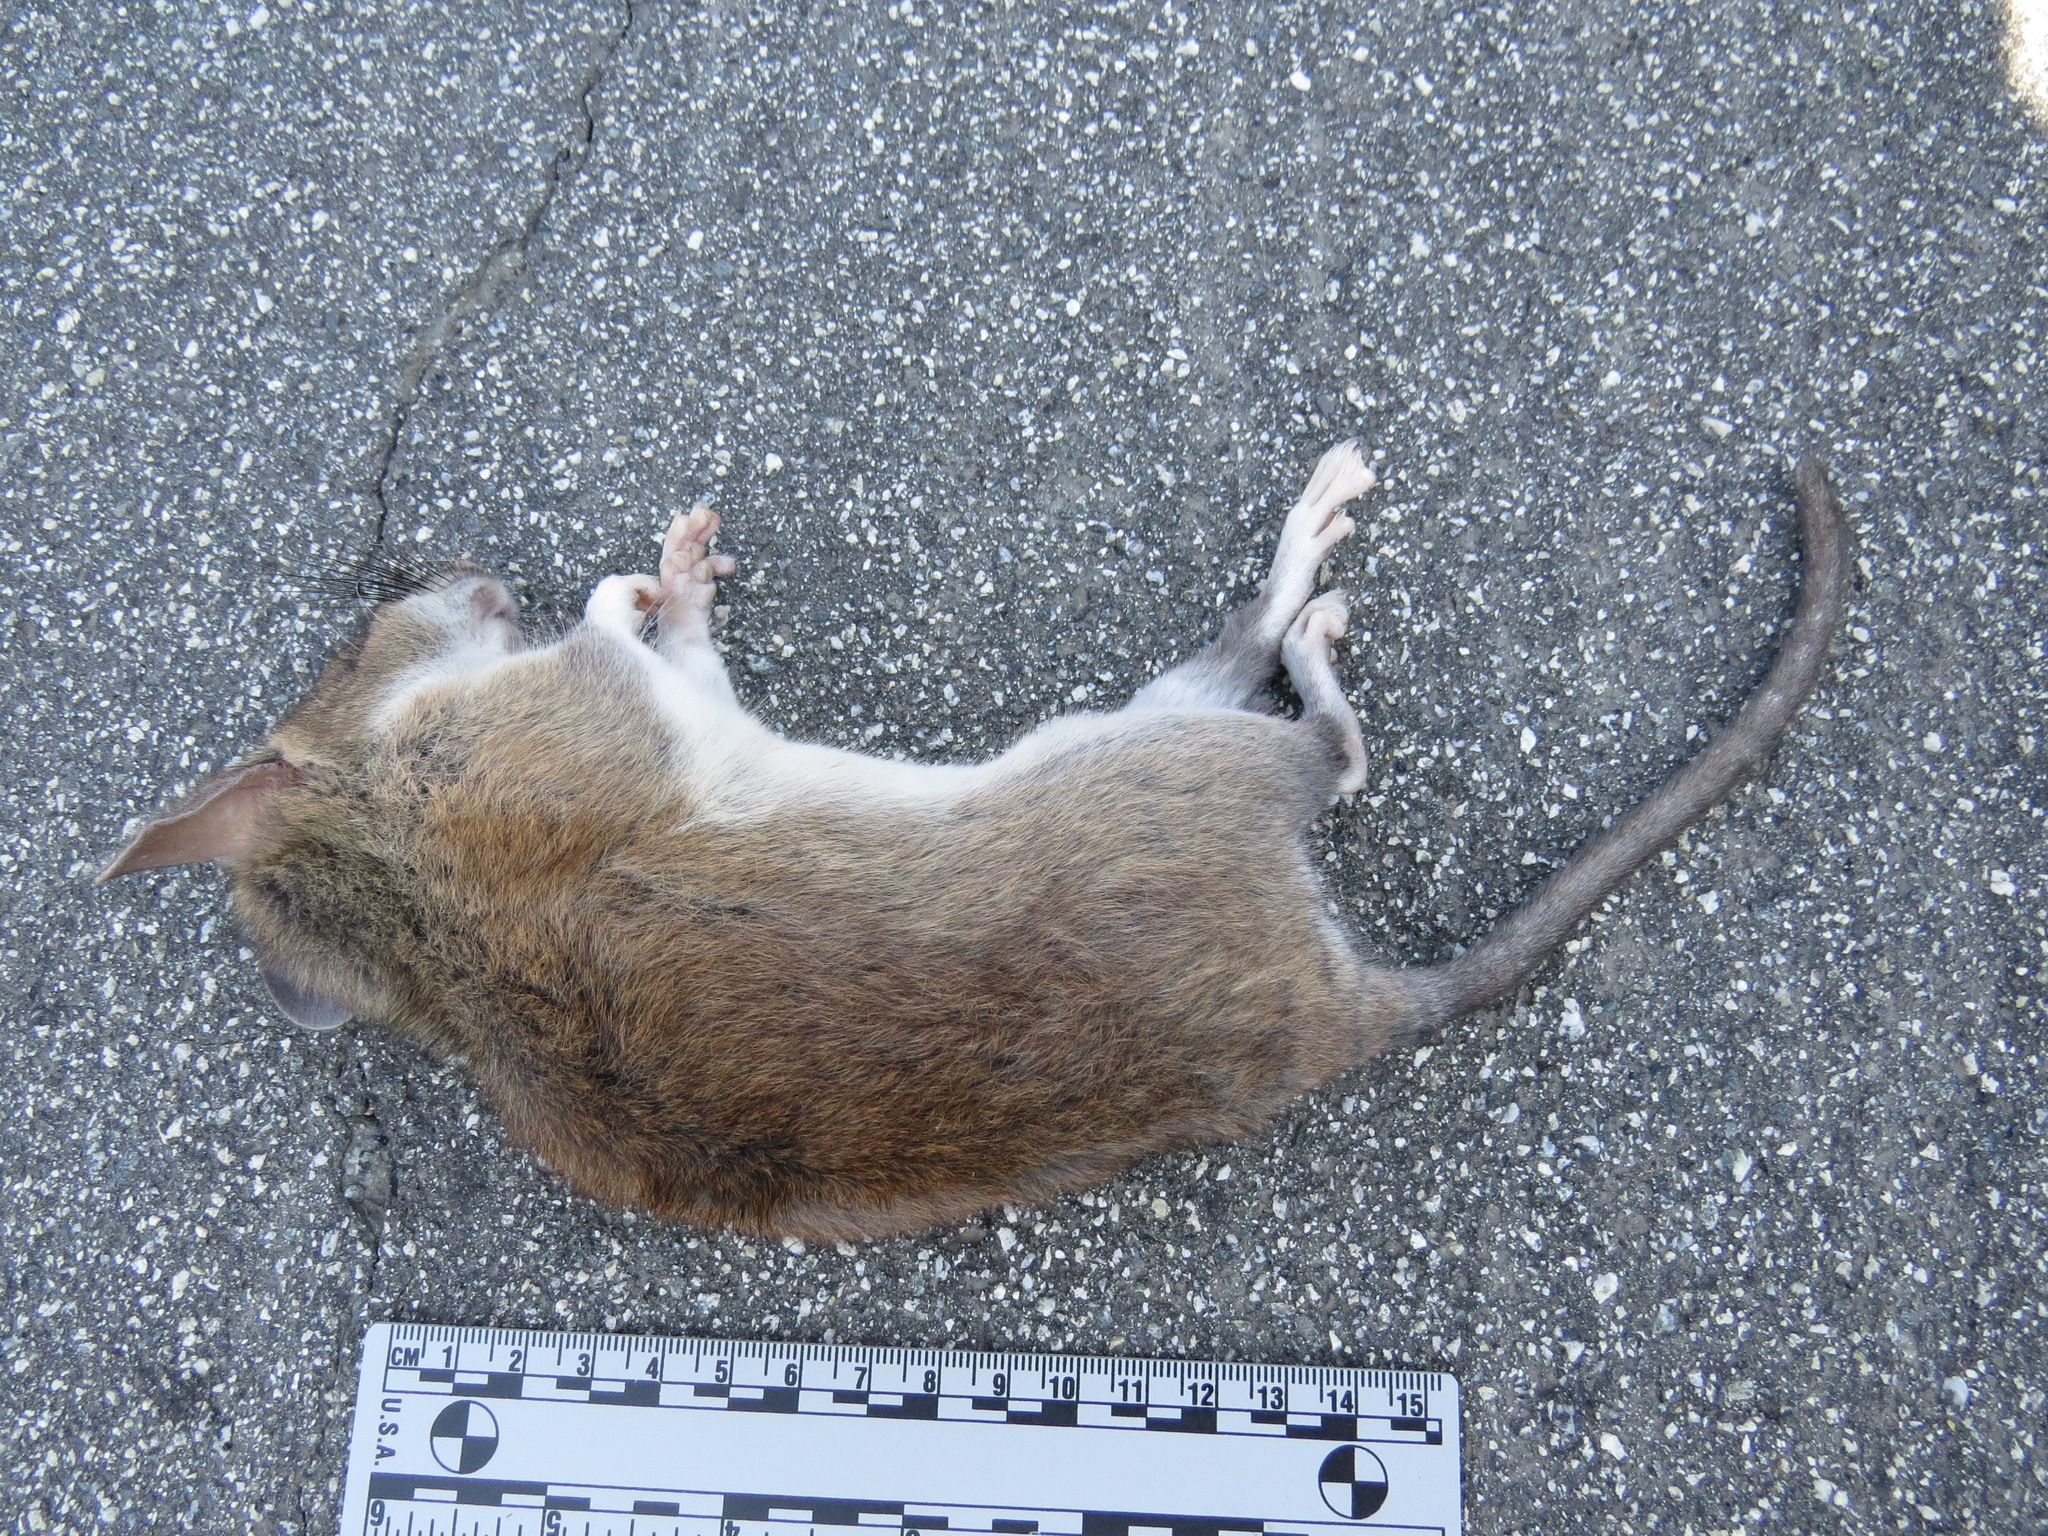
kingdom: Animalia
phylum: Chordata
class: Mammalia
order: Rodentia
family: Cricetidae
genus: Neotoma
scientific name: Neotoma fuscipes
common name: Dusky-footed woodrat
